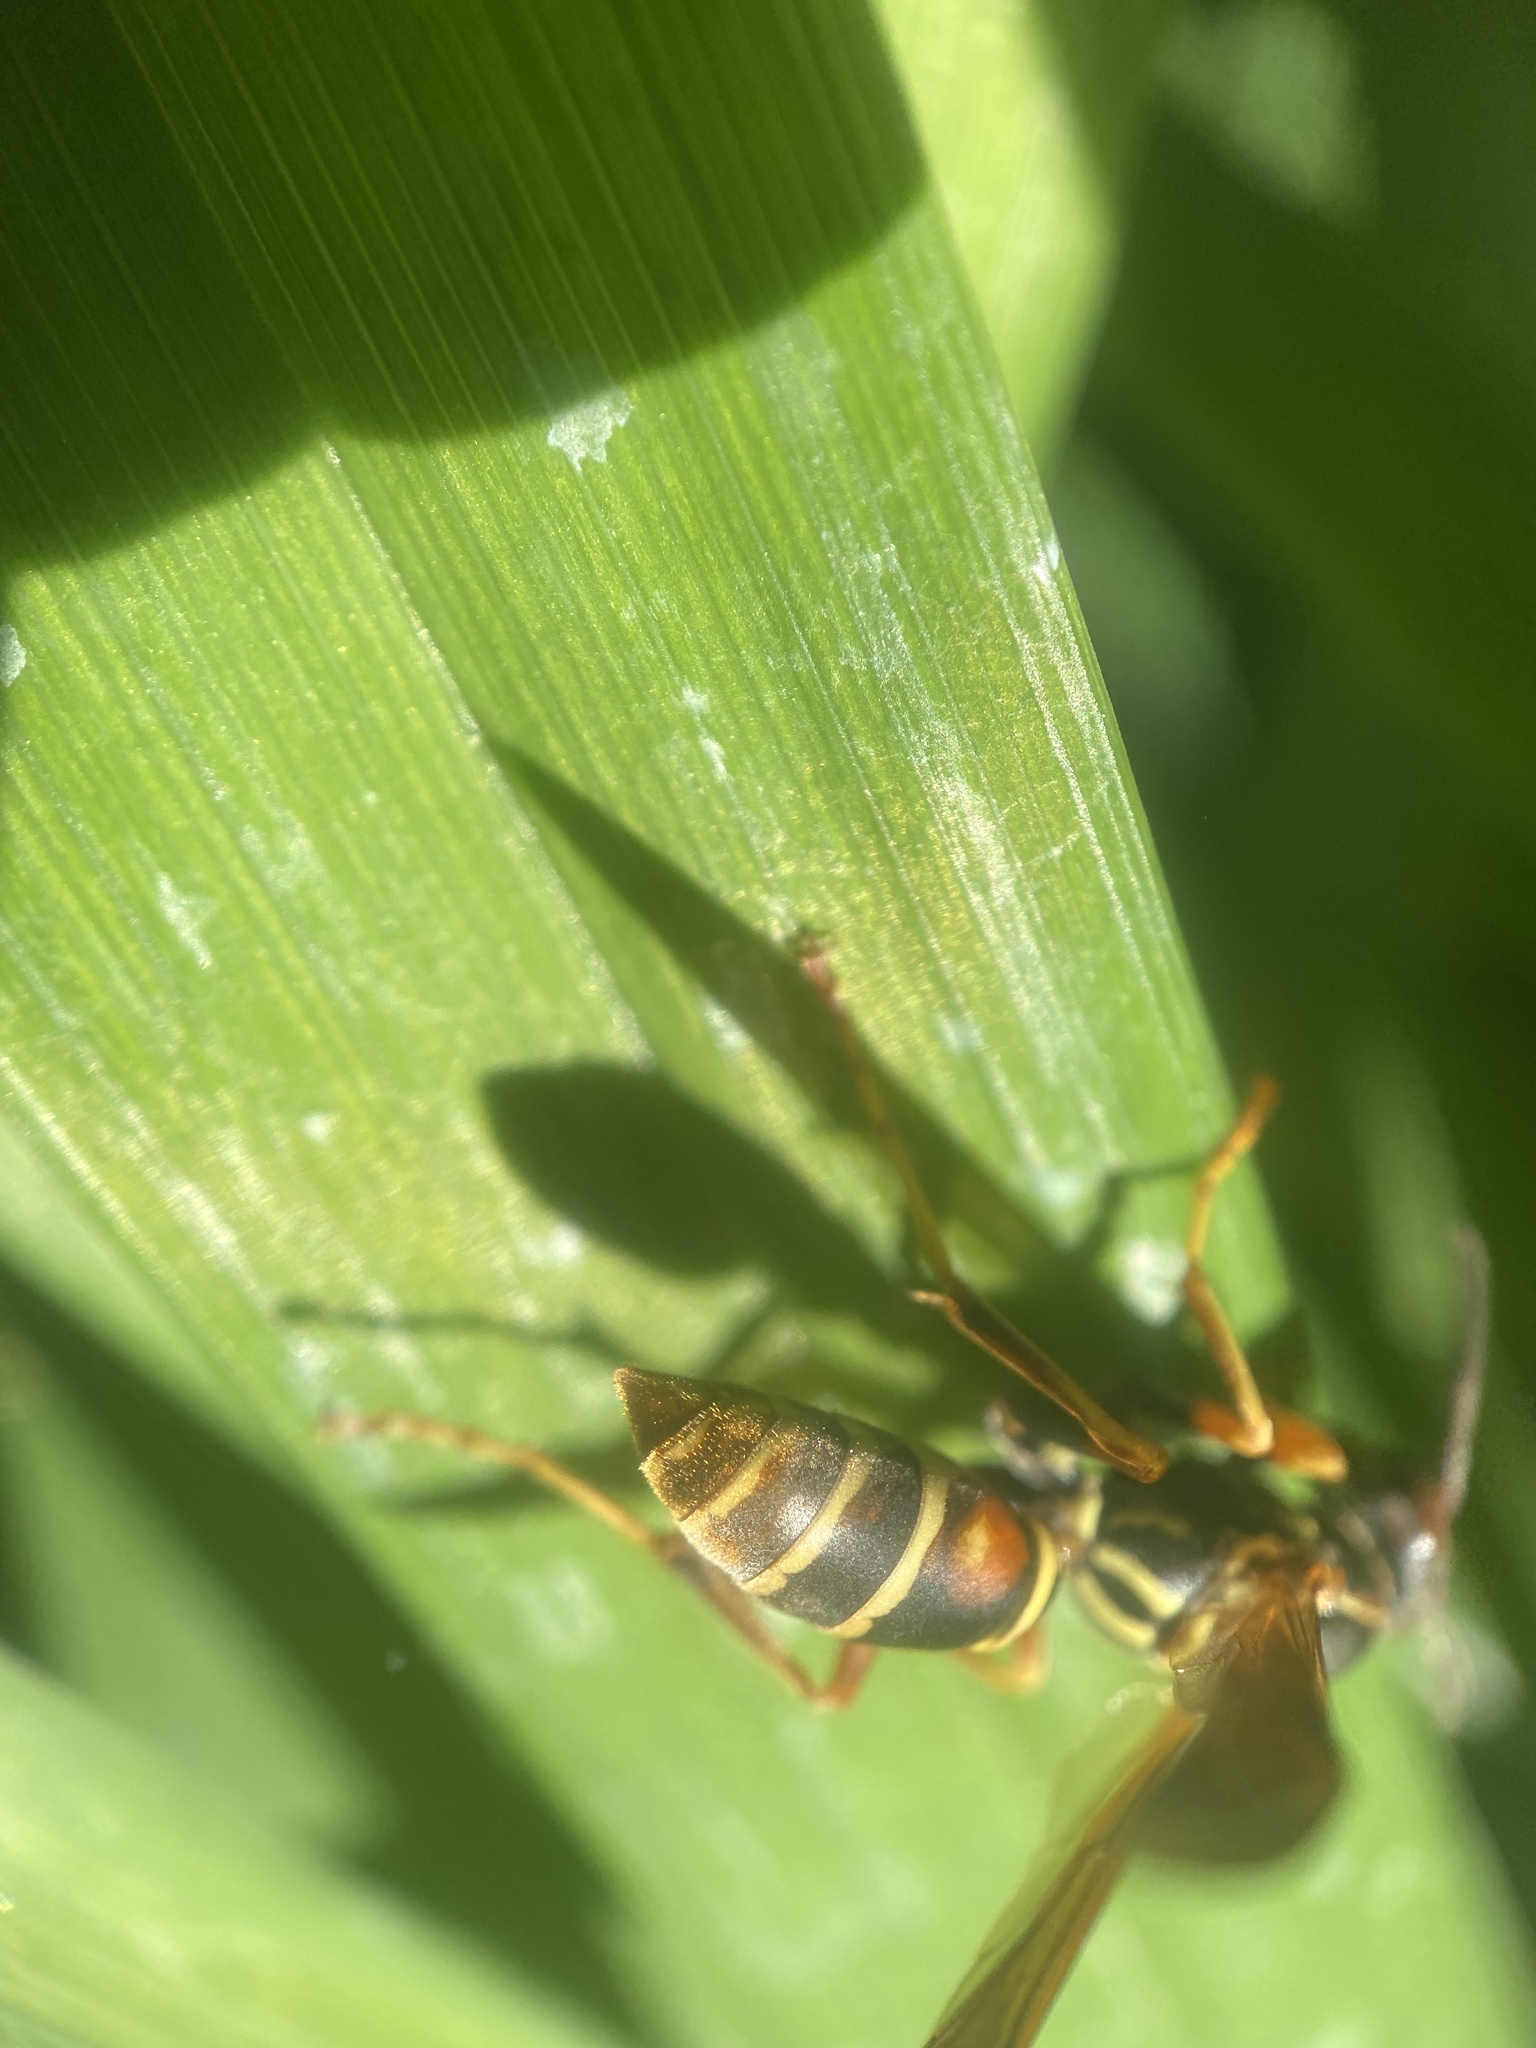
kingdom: Animalia
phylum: Arthropoda
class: Insecta
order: Hymenoptera
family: Eumenidae
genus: Polistes
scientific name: Polistes fuscatus
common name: Dark paper wasp
